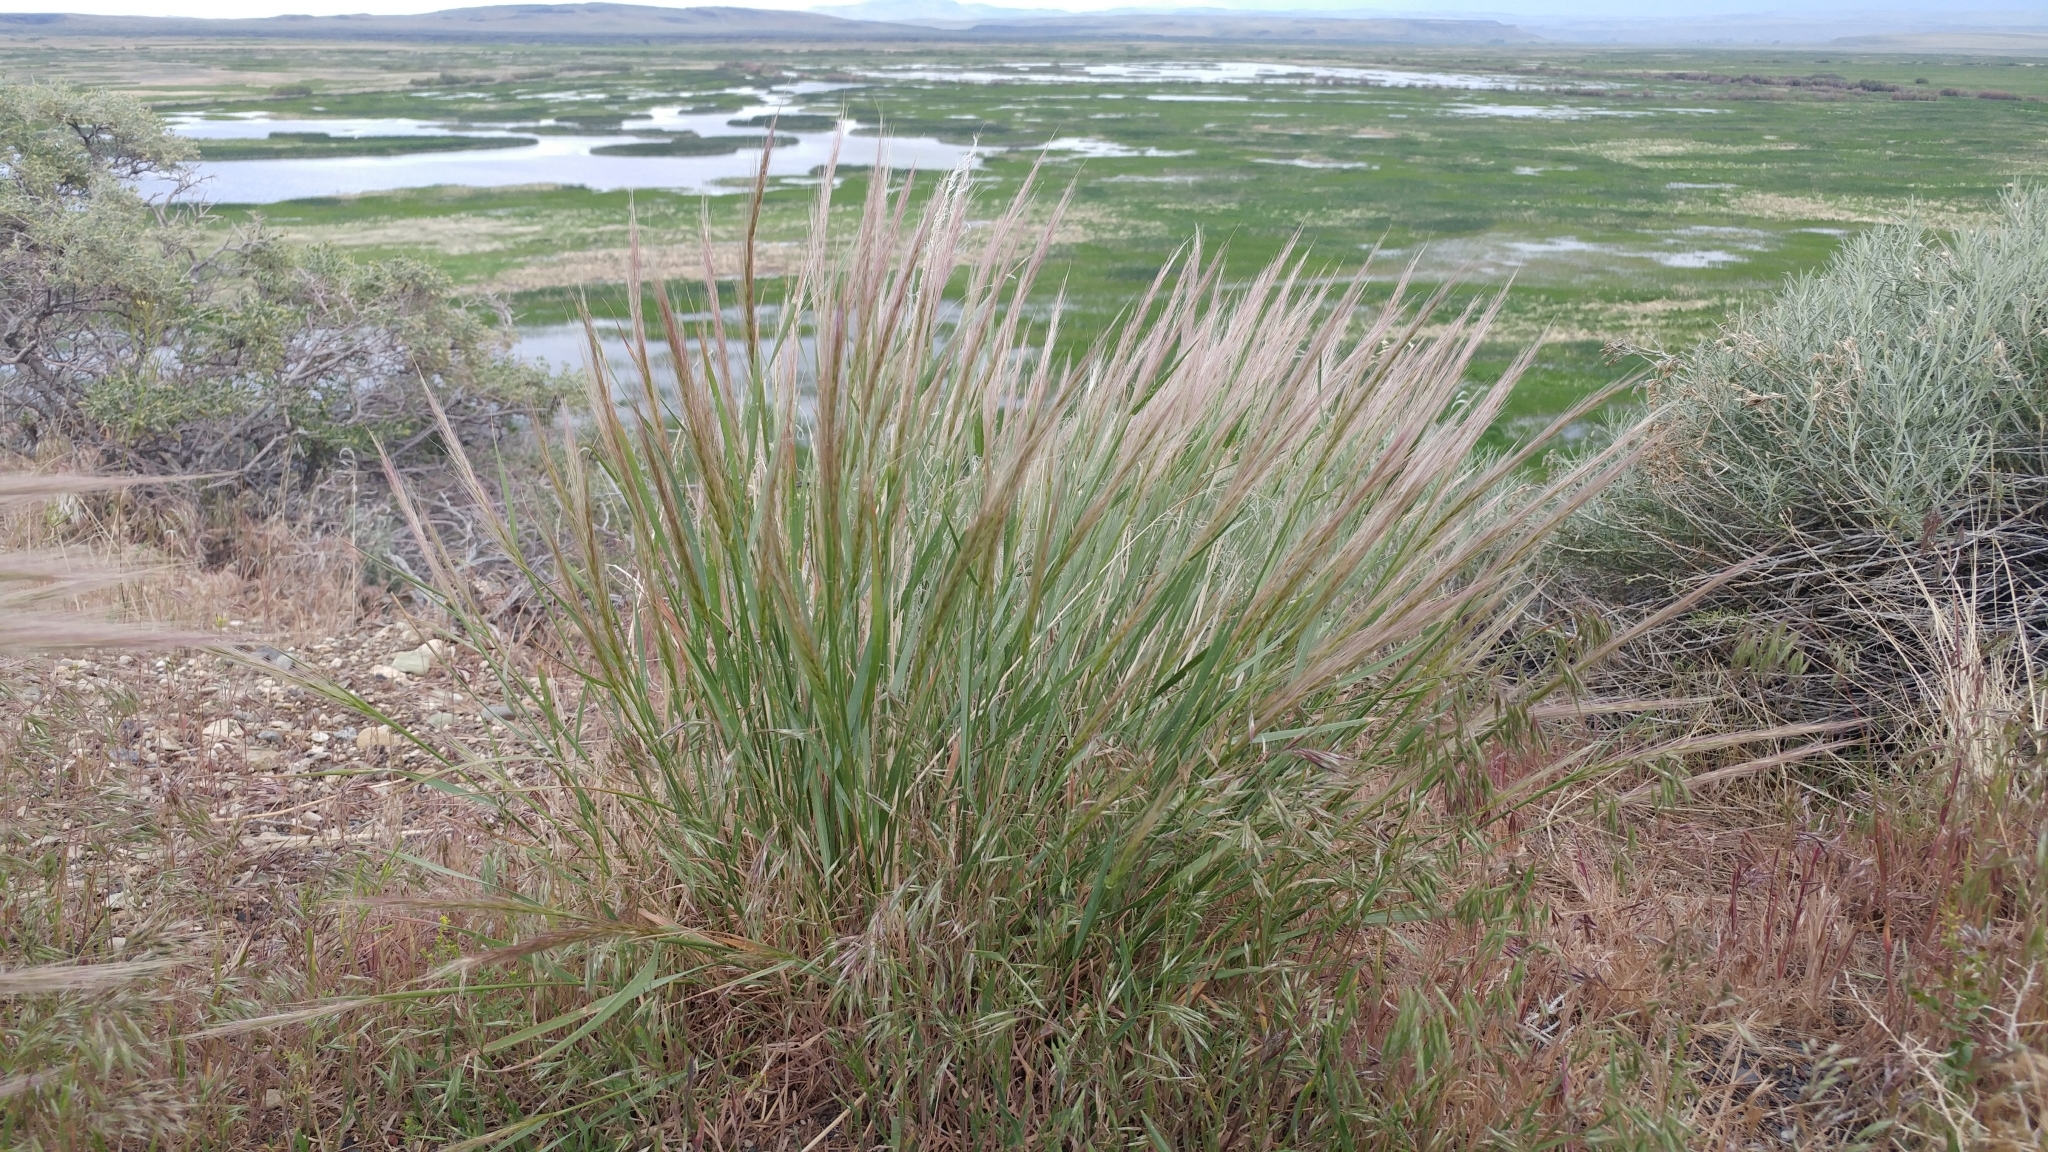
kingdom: Plantae
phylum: Tracheophyta
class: Liliopsida
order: Poales
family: Poaceae
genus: Elymus
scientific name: Elymus elymoides
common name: Bottlebrush squirreltail
